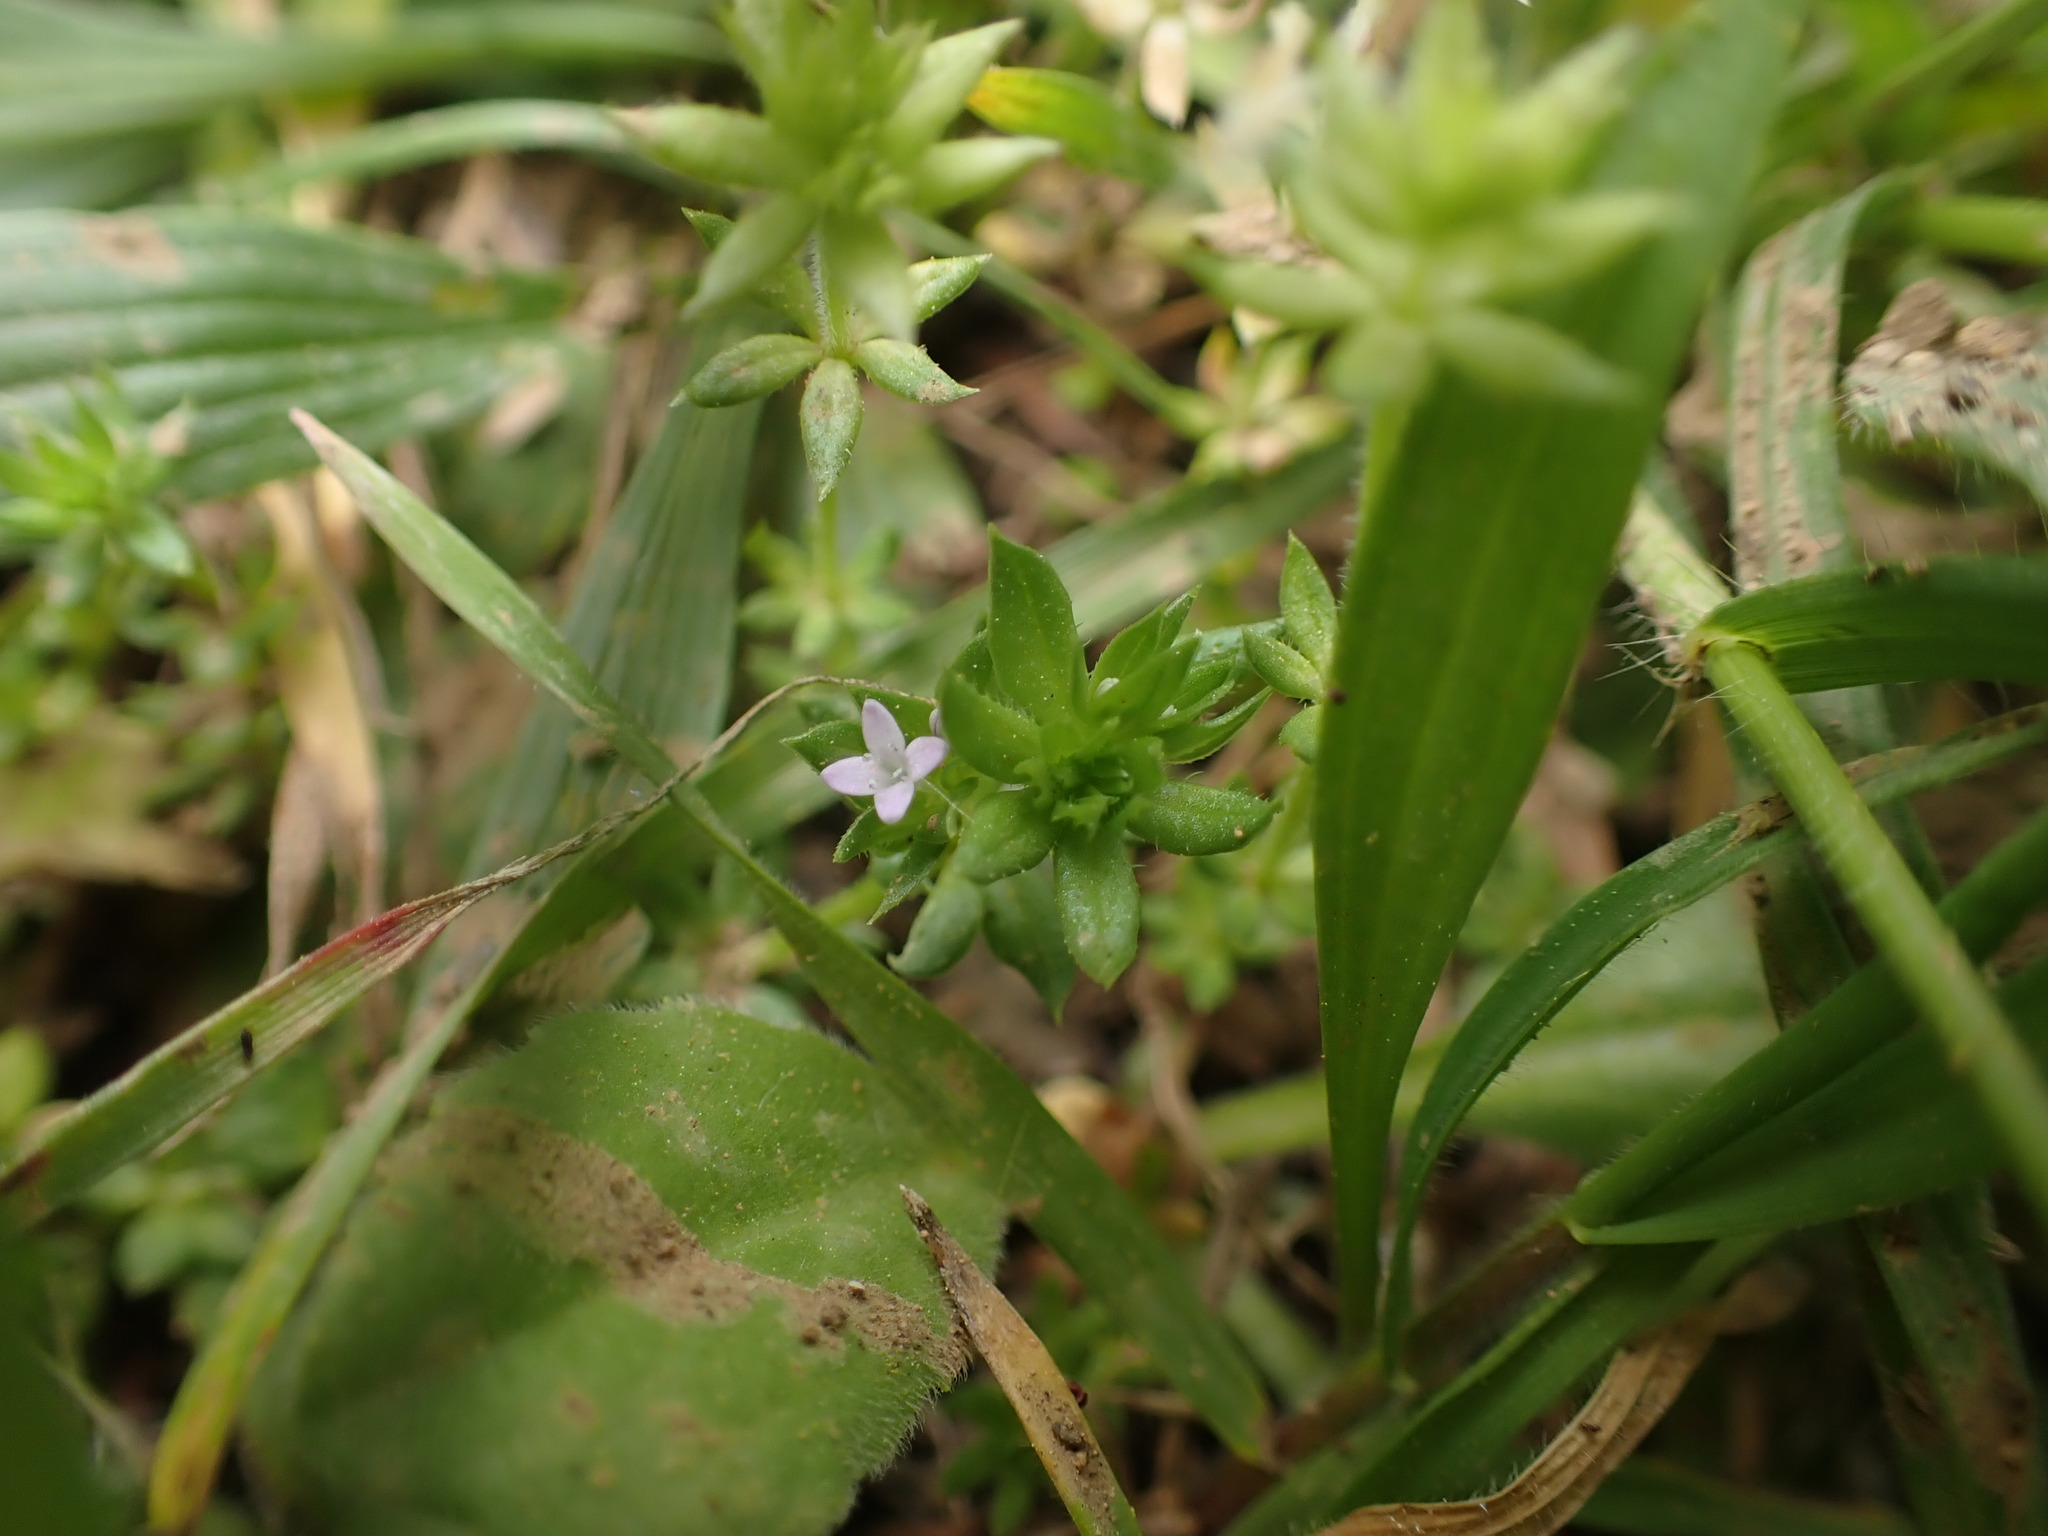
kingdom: Plantae
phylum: Tracheophyta
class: Magnoliopsida
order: Gentianales
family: Rubiaceae
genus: Sherardia
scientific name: Sherardia arvensis
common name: Field madder
